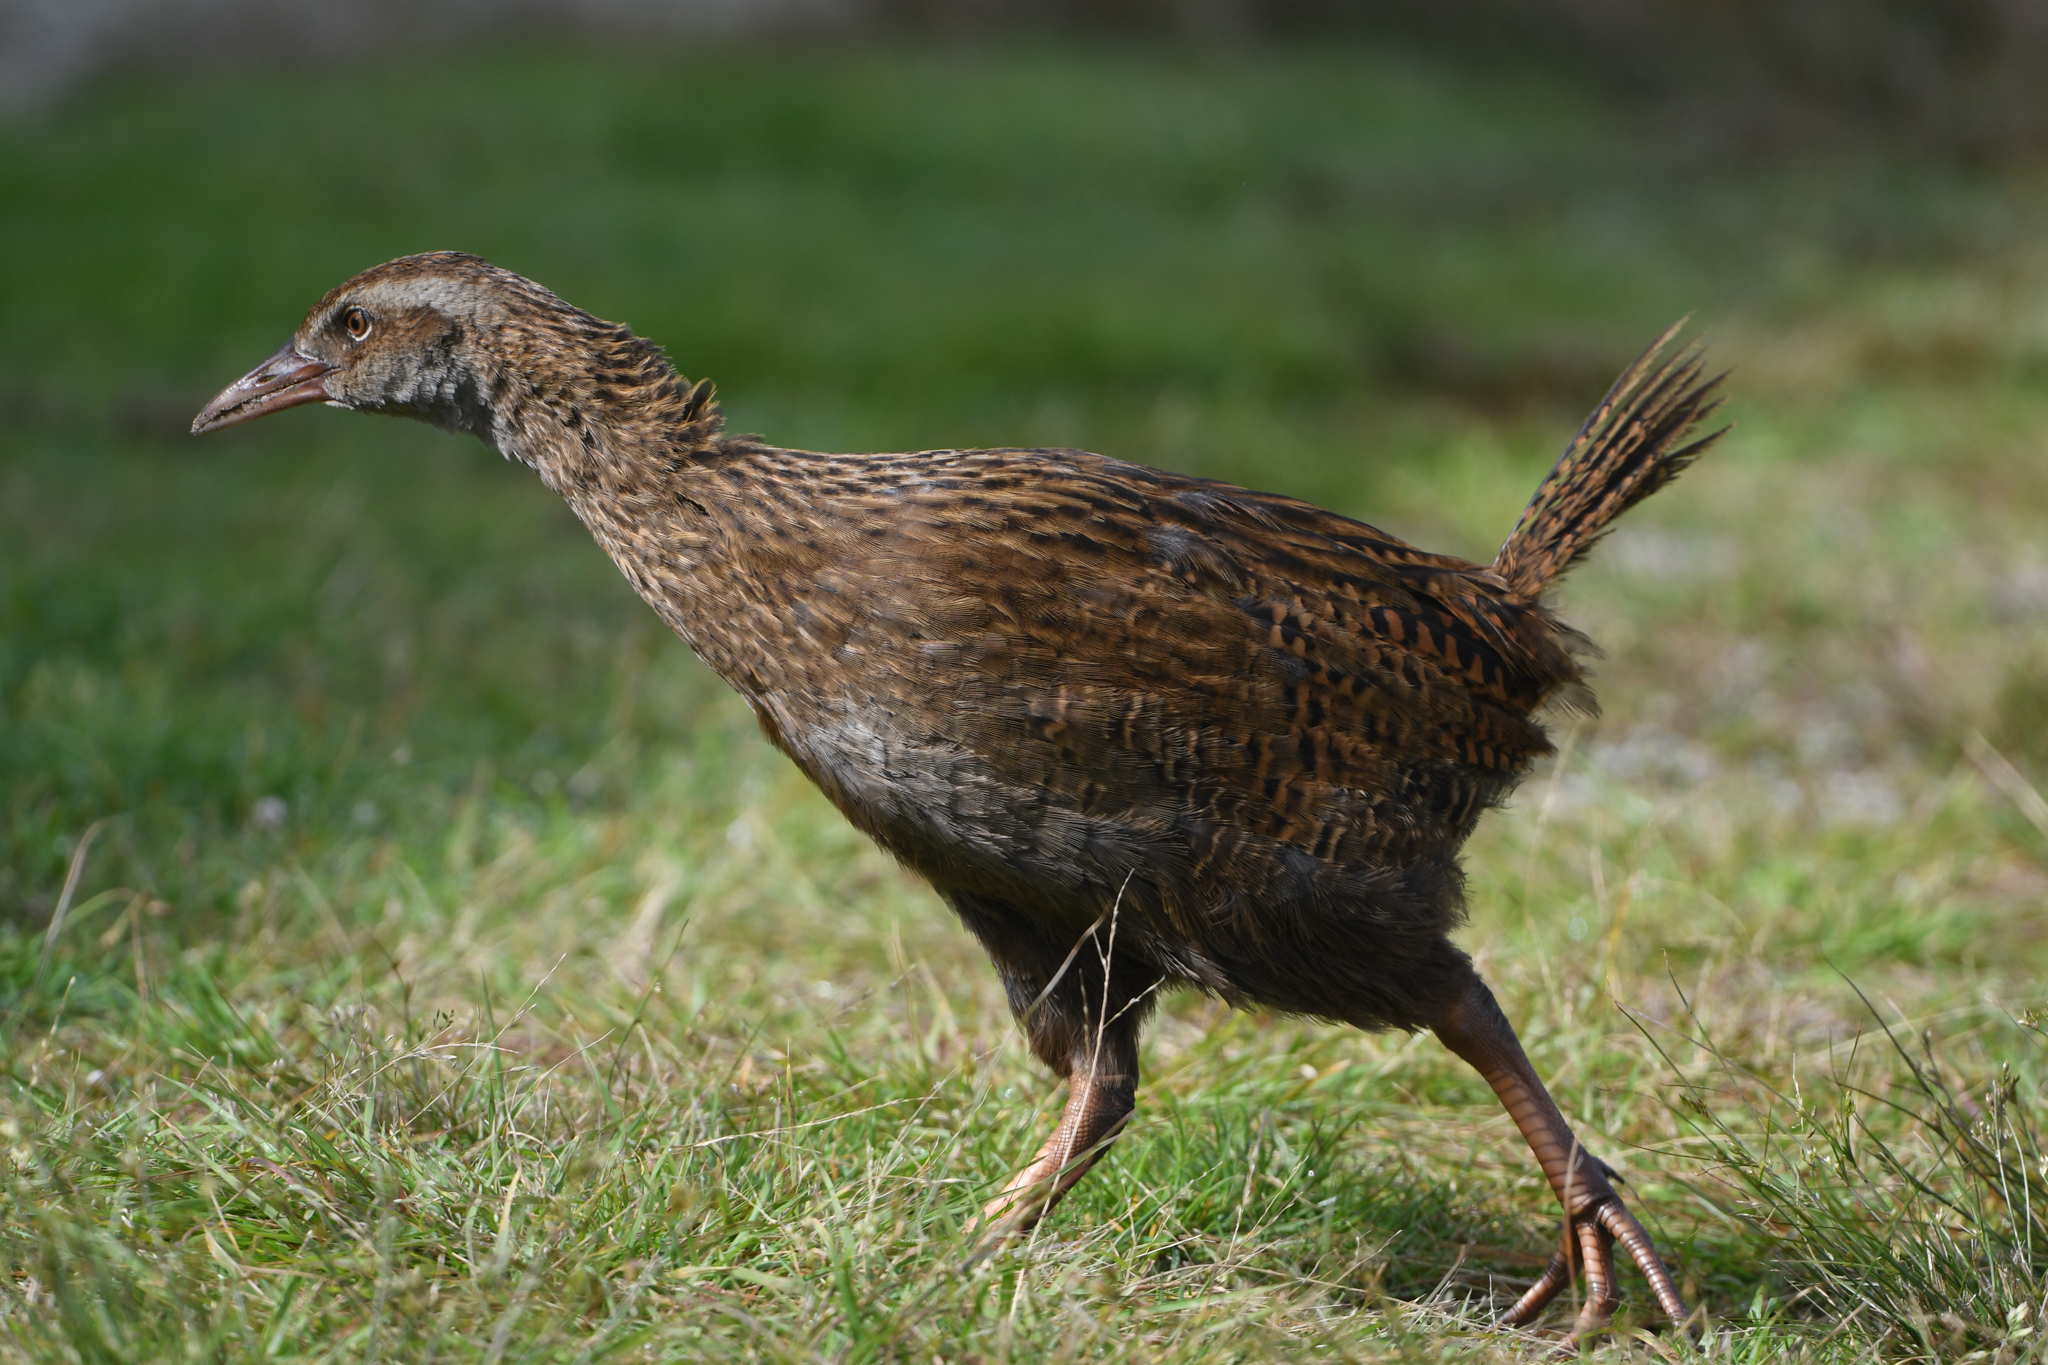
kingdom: Animalia
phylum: Chordata
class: Aves
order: Gruiformes
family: Rallidae
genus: Gallirallus
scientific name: Gallirallus australis
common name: Weka
